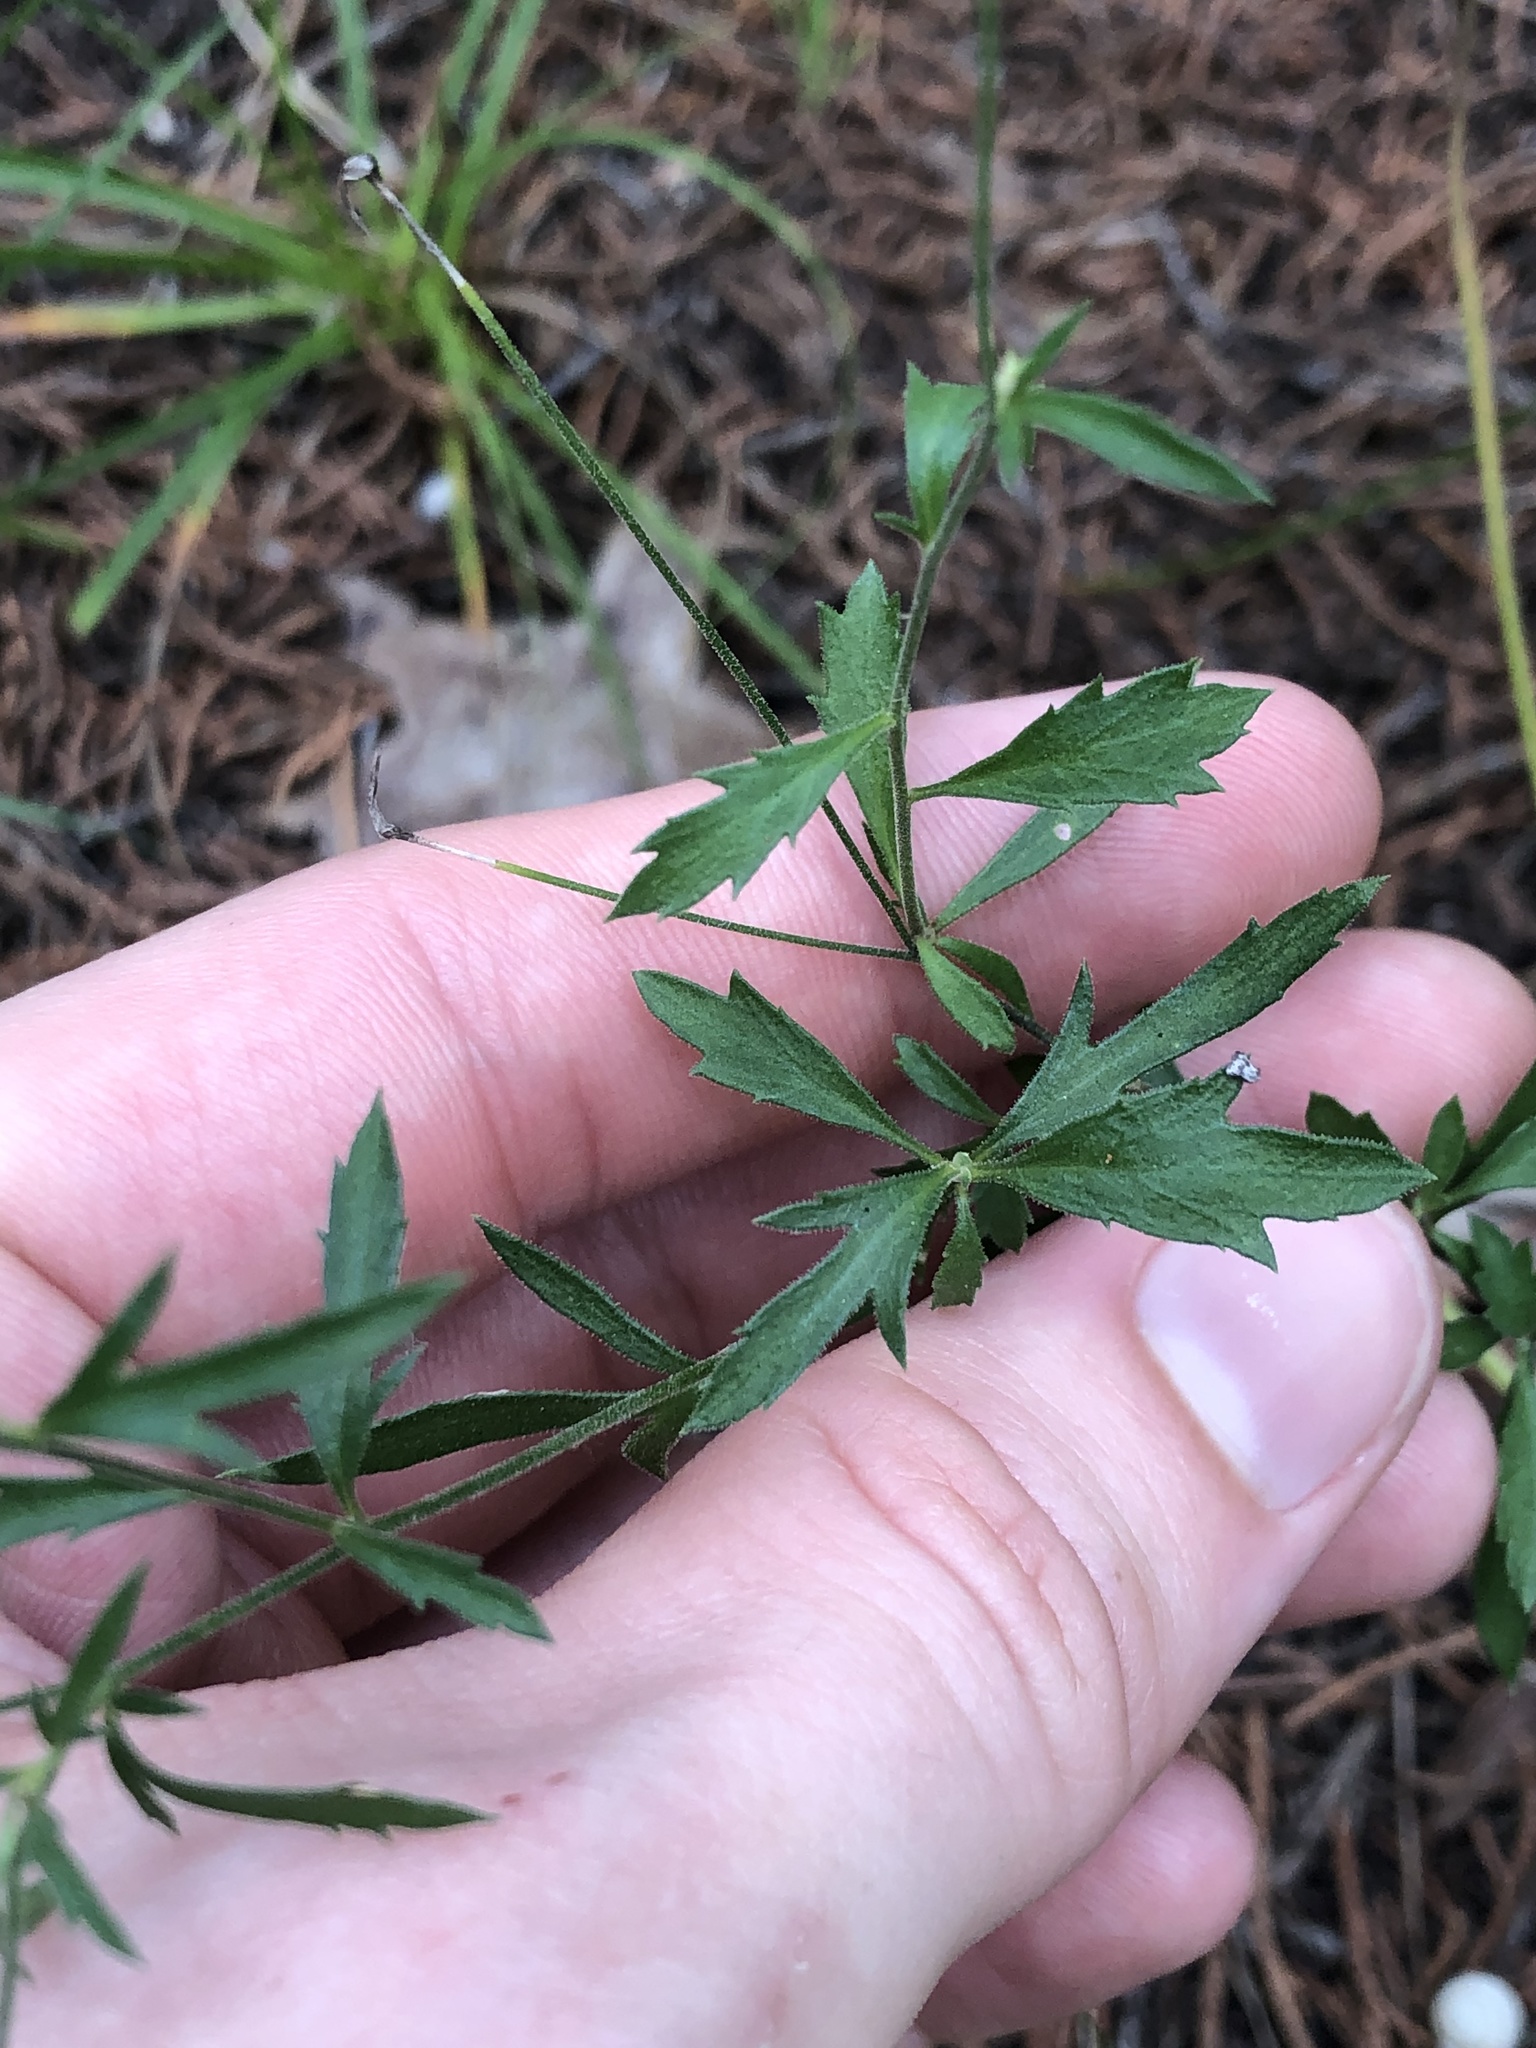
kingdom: Plantae
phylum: Tracheophyta
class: Magnoliopsida
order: Ericales
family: Polemoniaceae
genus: Giliastrum
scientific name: Giliastrum incisum
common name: Splitleaf gilia
